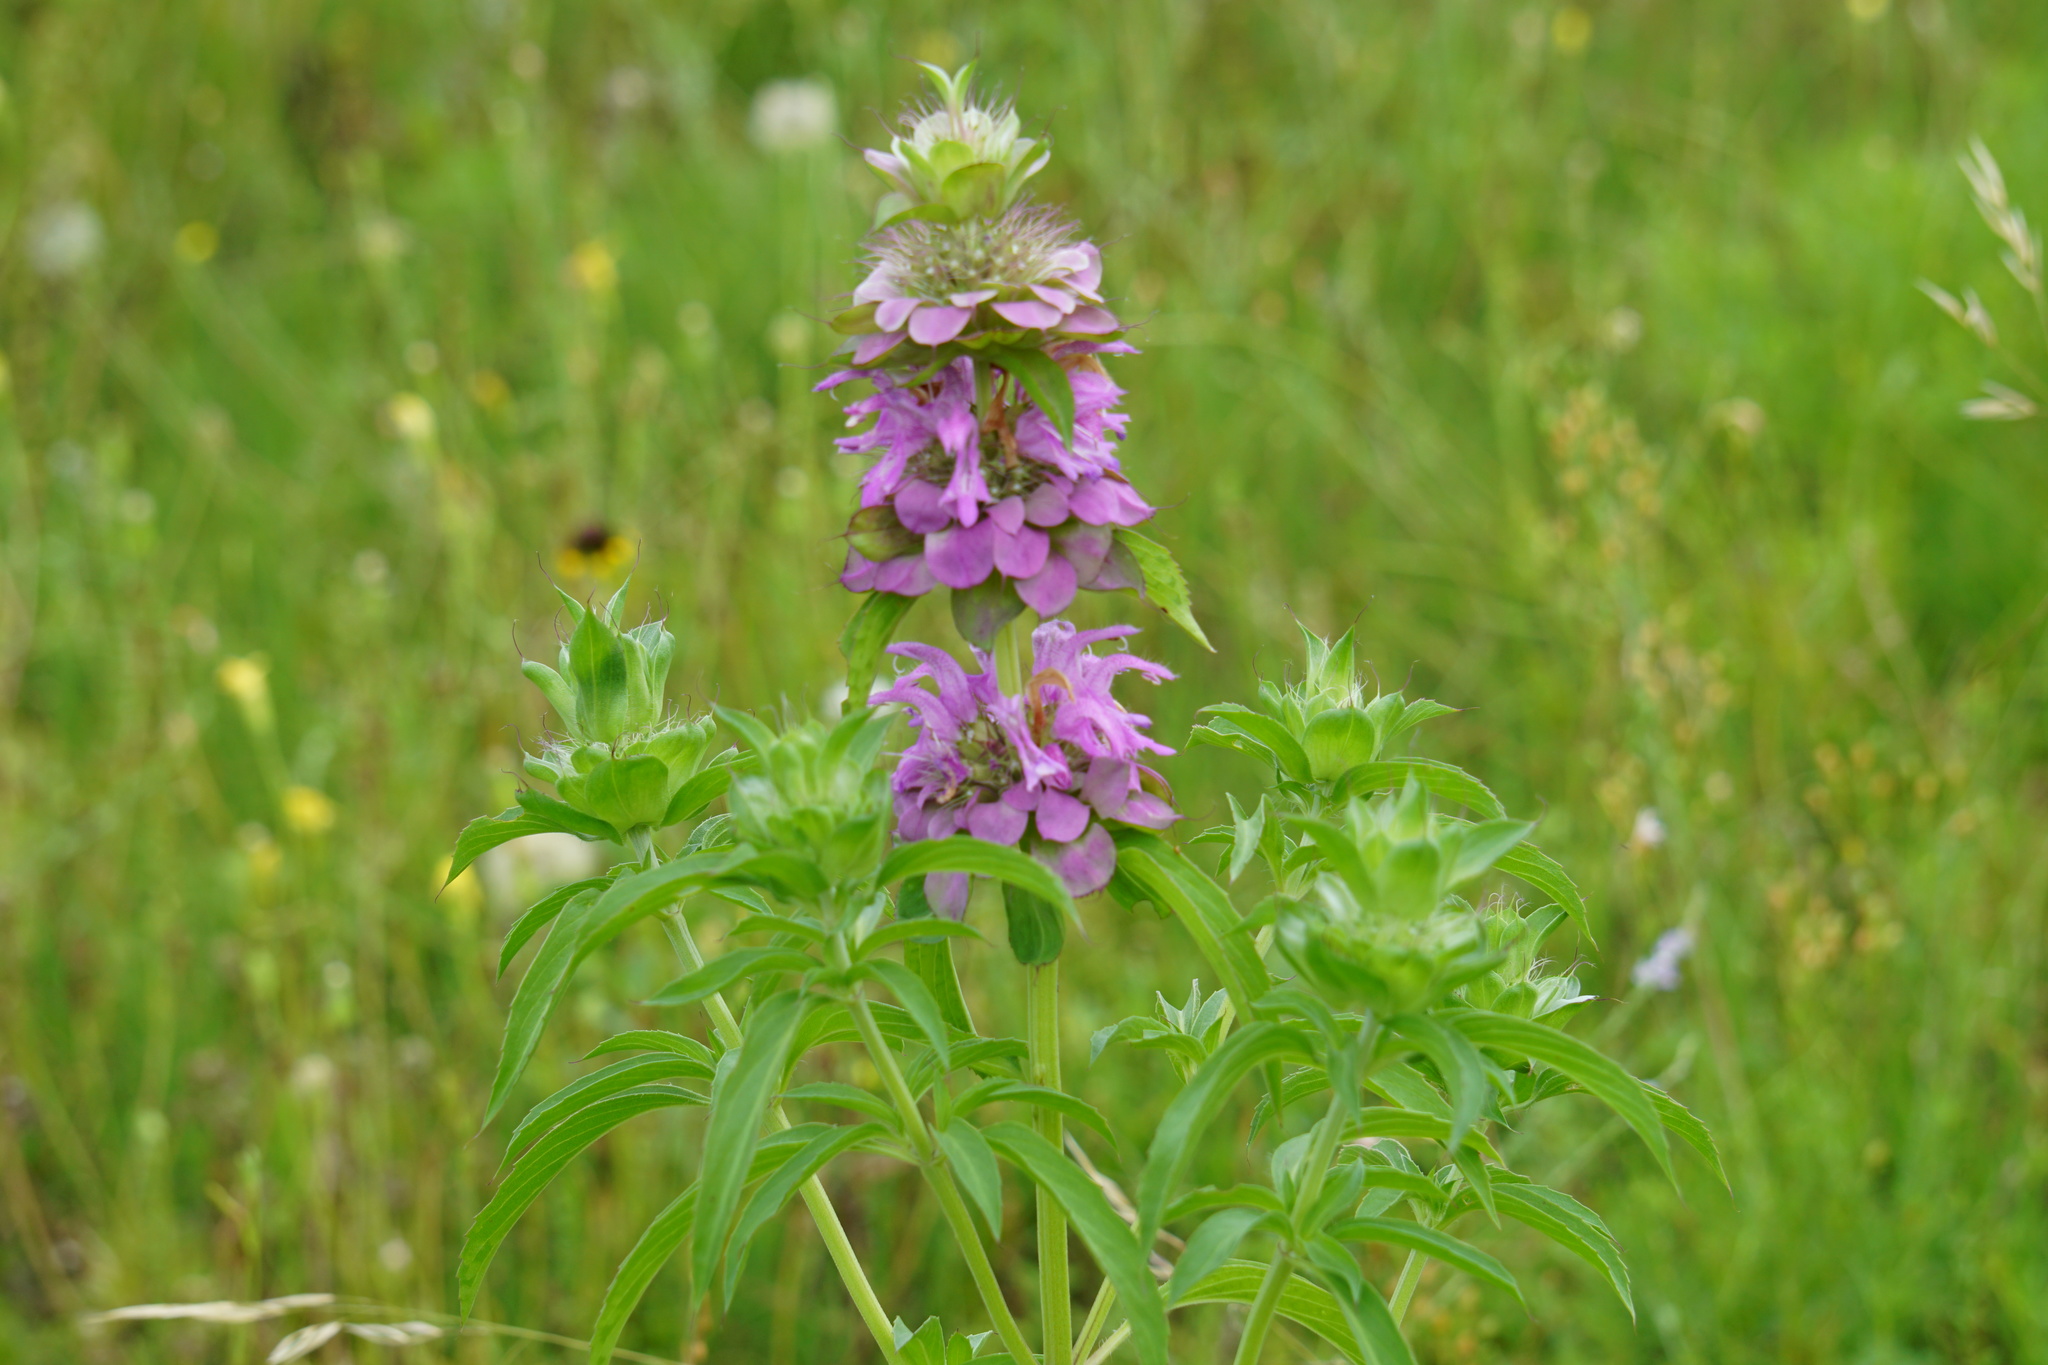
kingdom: Plantae
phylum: Tracheophyta
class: Magnoliopsida
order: Lamiales
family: Lamiaceae
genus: Monarda
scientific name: Monarda citriodora
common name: Lemon beebalm
